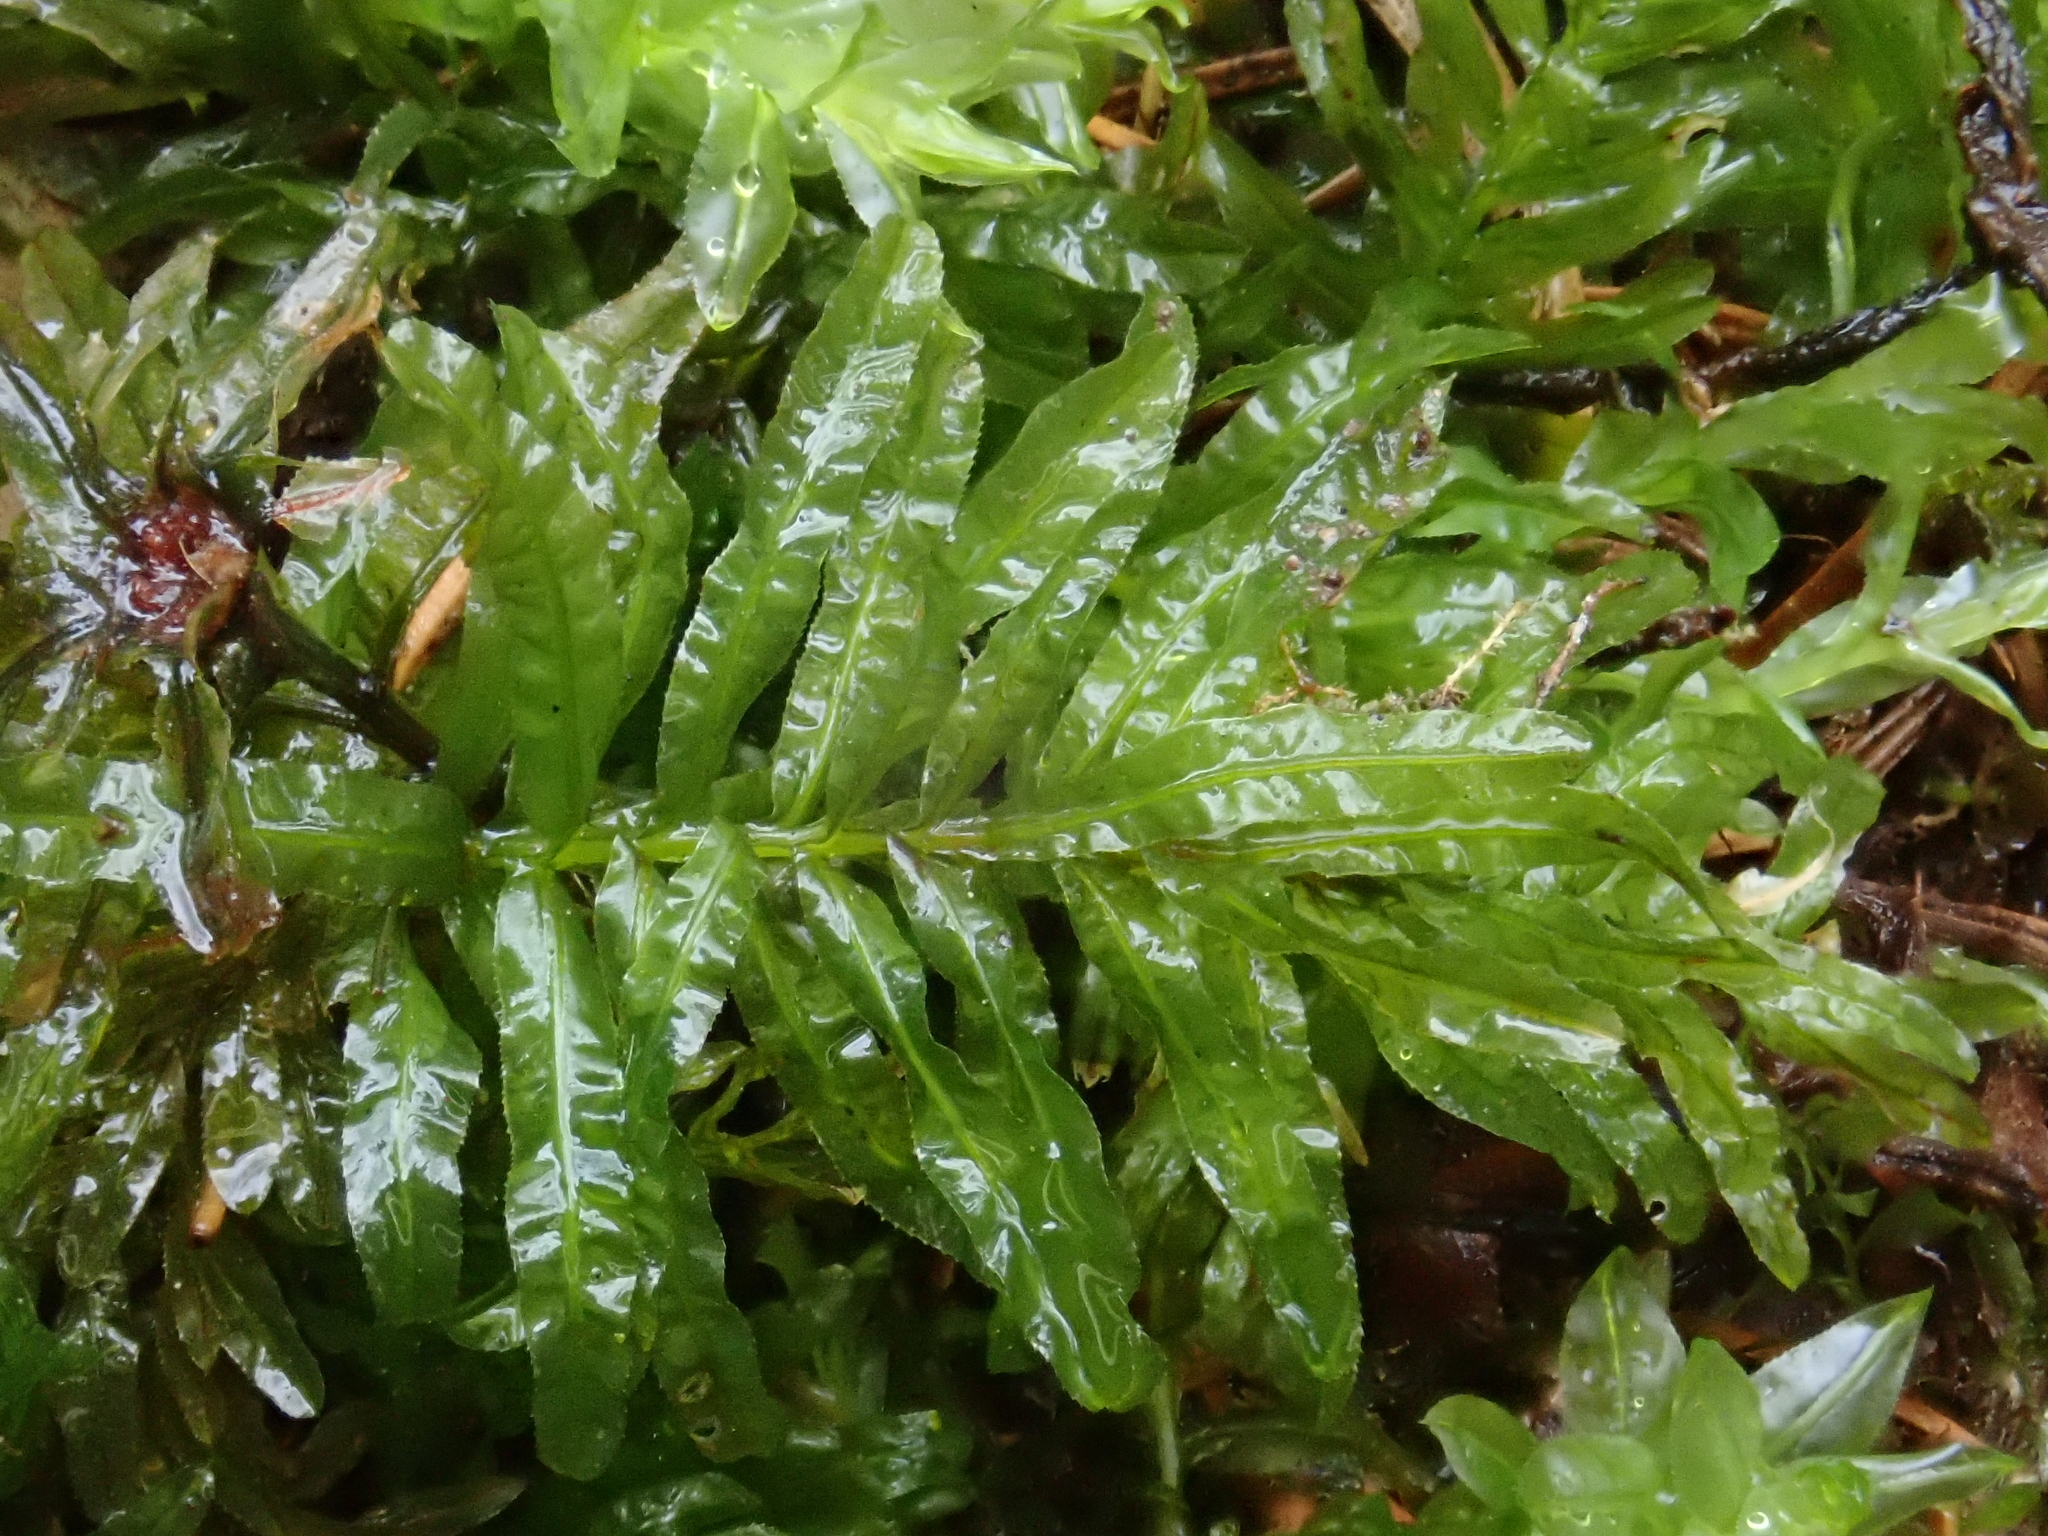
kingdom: Plantae
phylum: Bryophyta
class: Bryopsida
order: Bryales
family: Mniaceae
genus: Plagiomnium
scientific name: Plagiomnium undulatum
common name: Hart's-tongue thyme-moss
